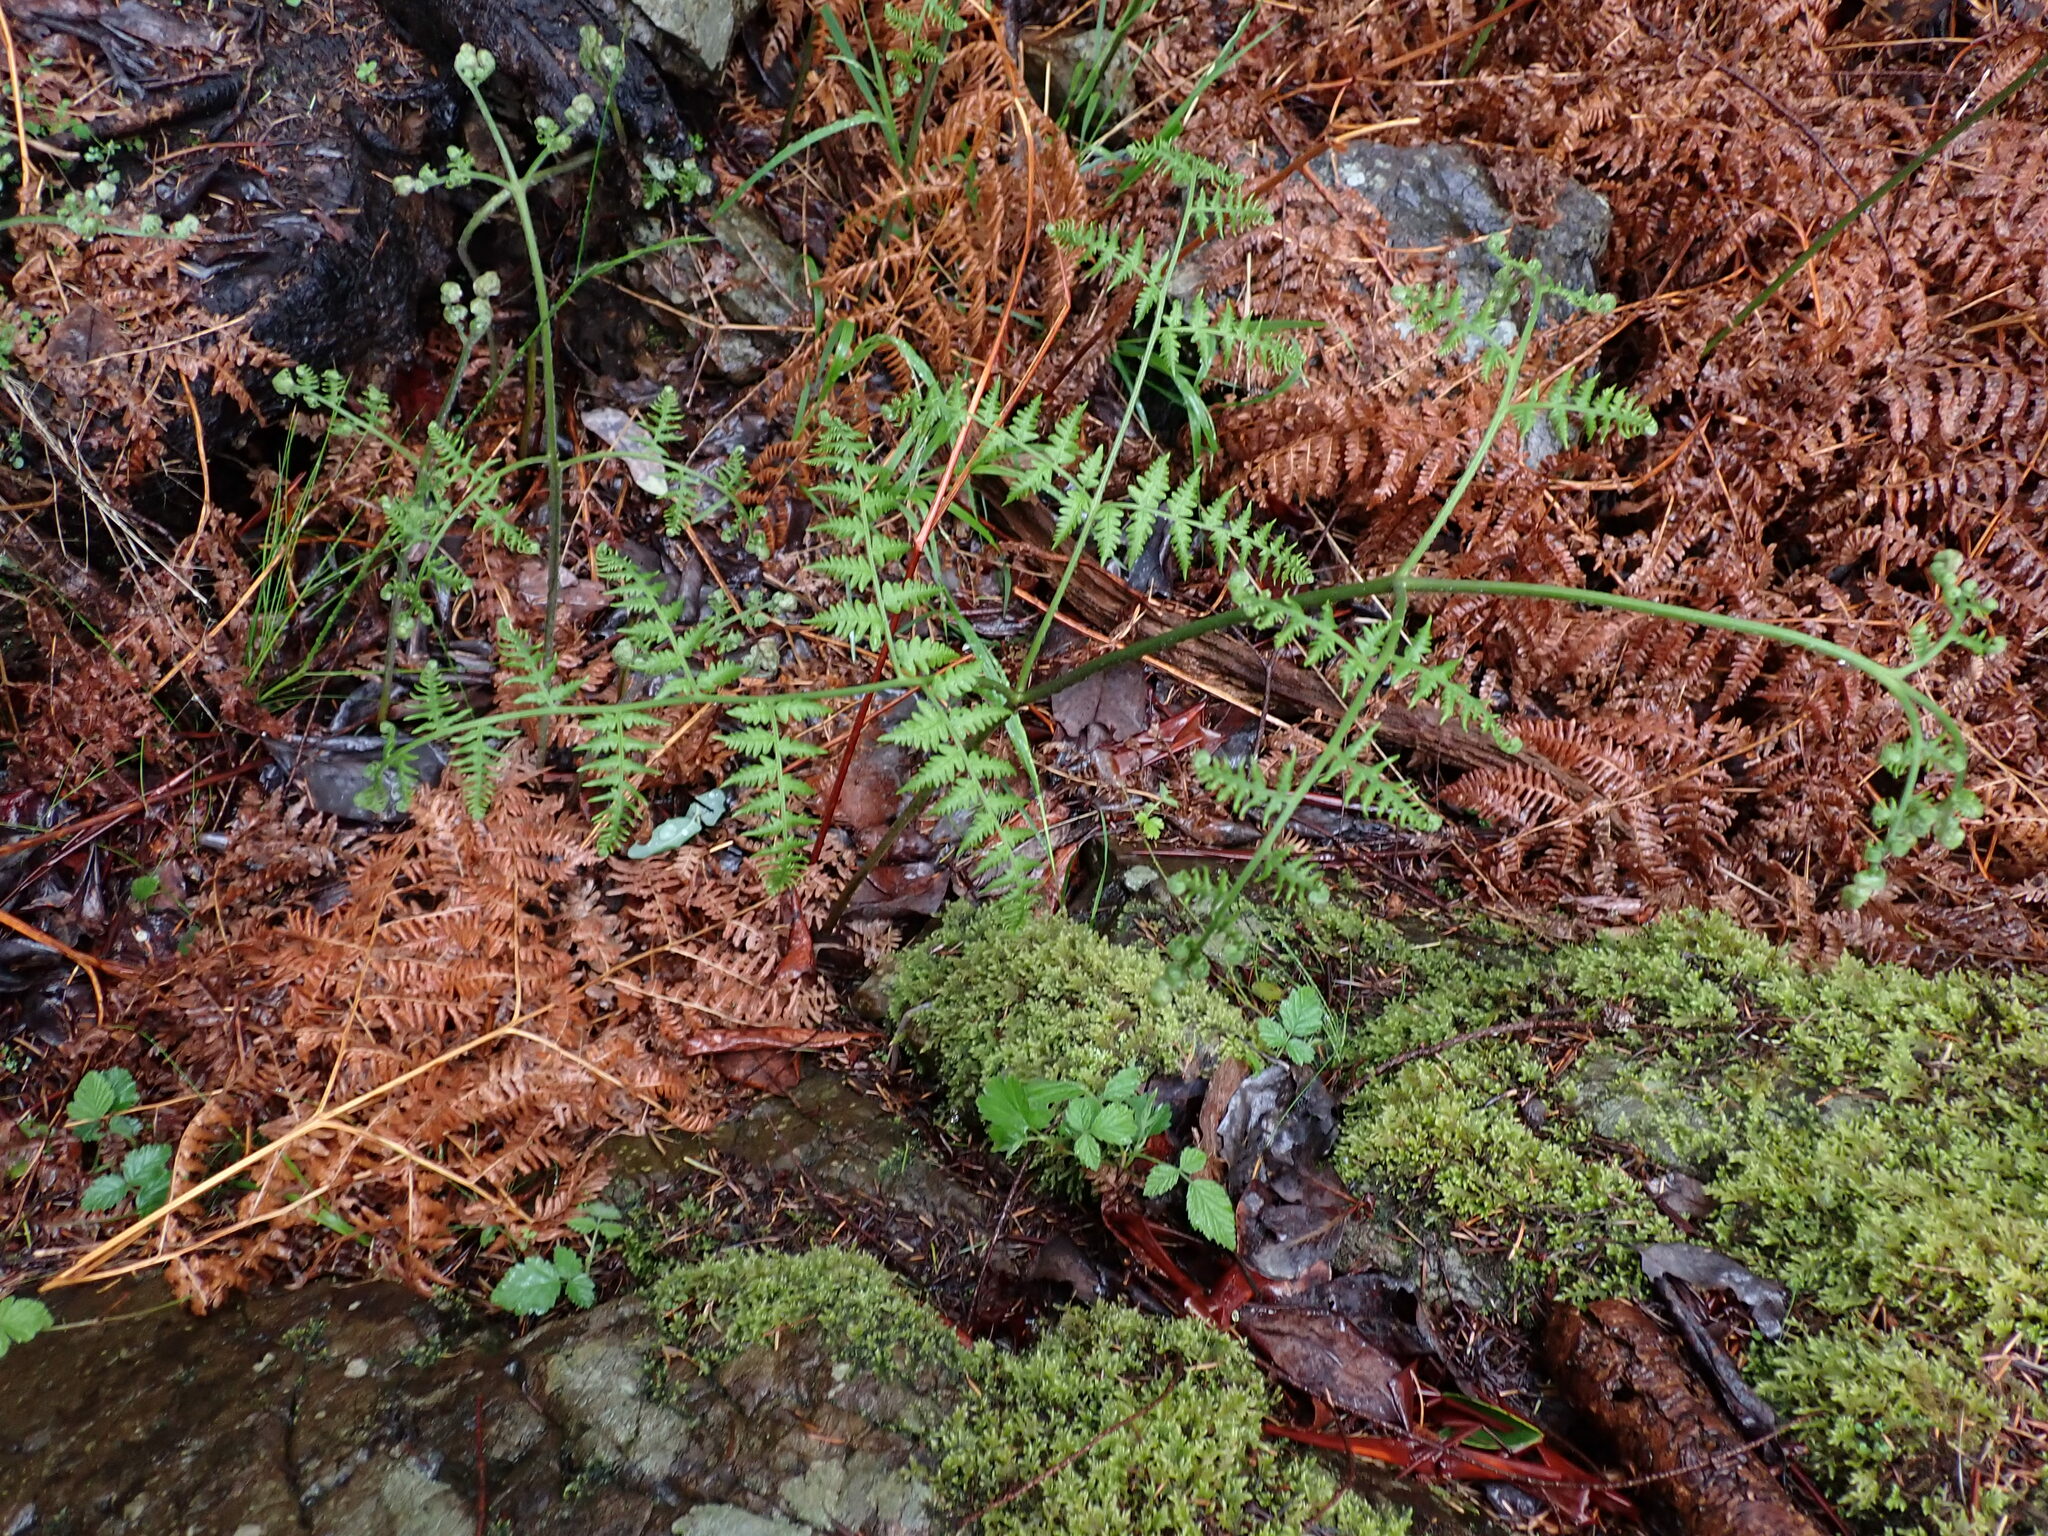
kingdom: Plantae
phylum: Tracheophyta
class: Polypodiopsida
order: Polypodiales
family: Dennstaedtiaceae
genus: Pteridium
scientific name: Pteridium aquilinum
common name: Bracken
